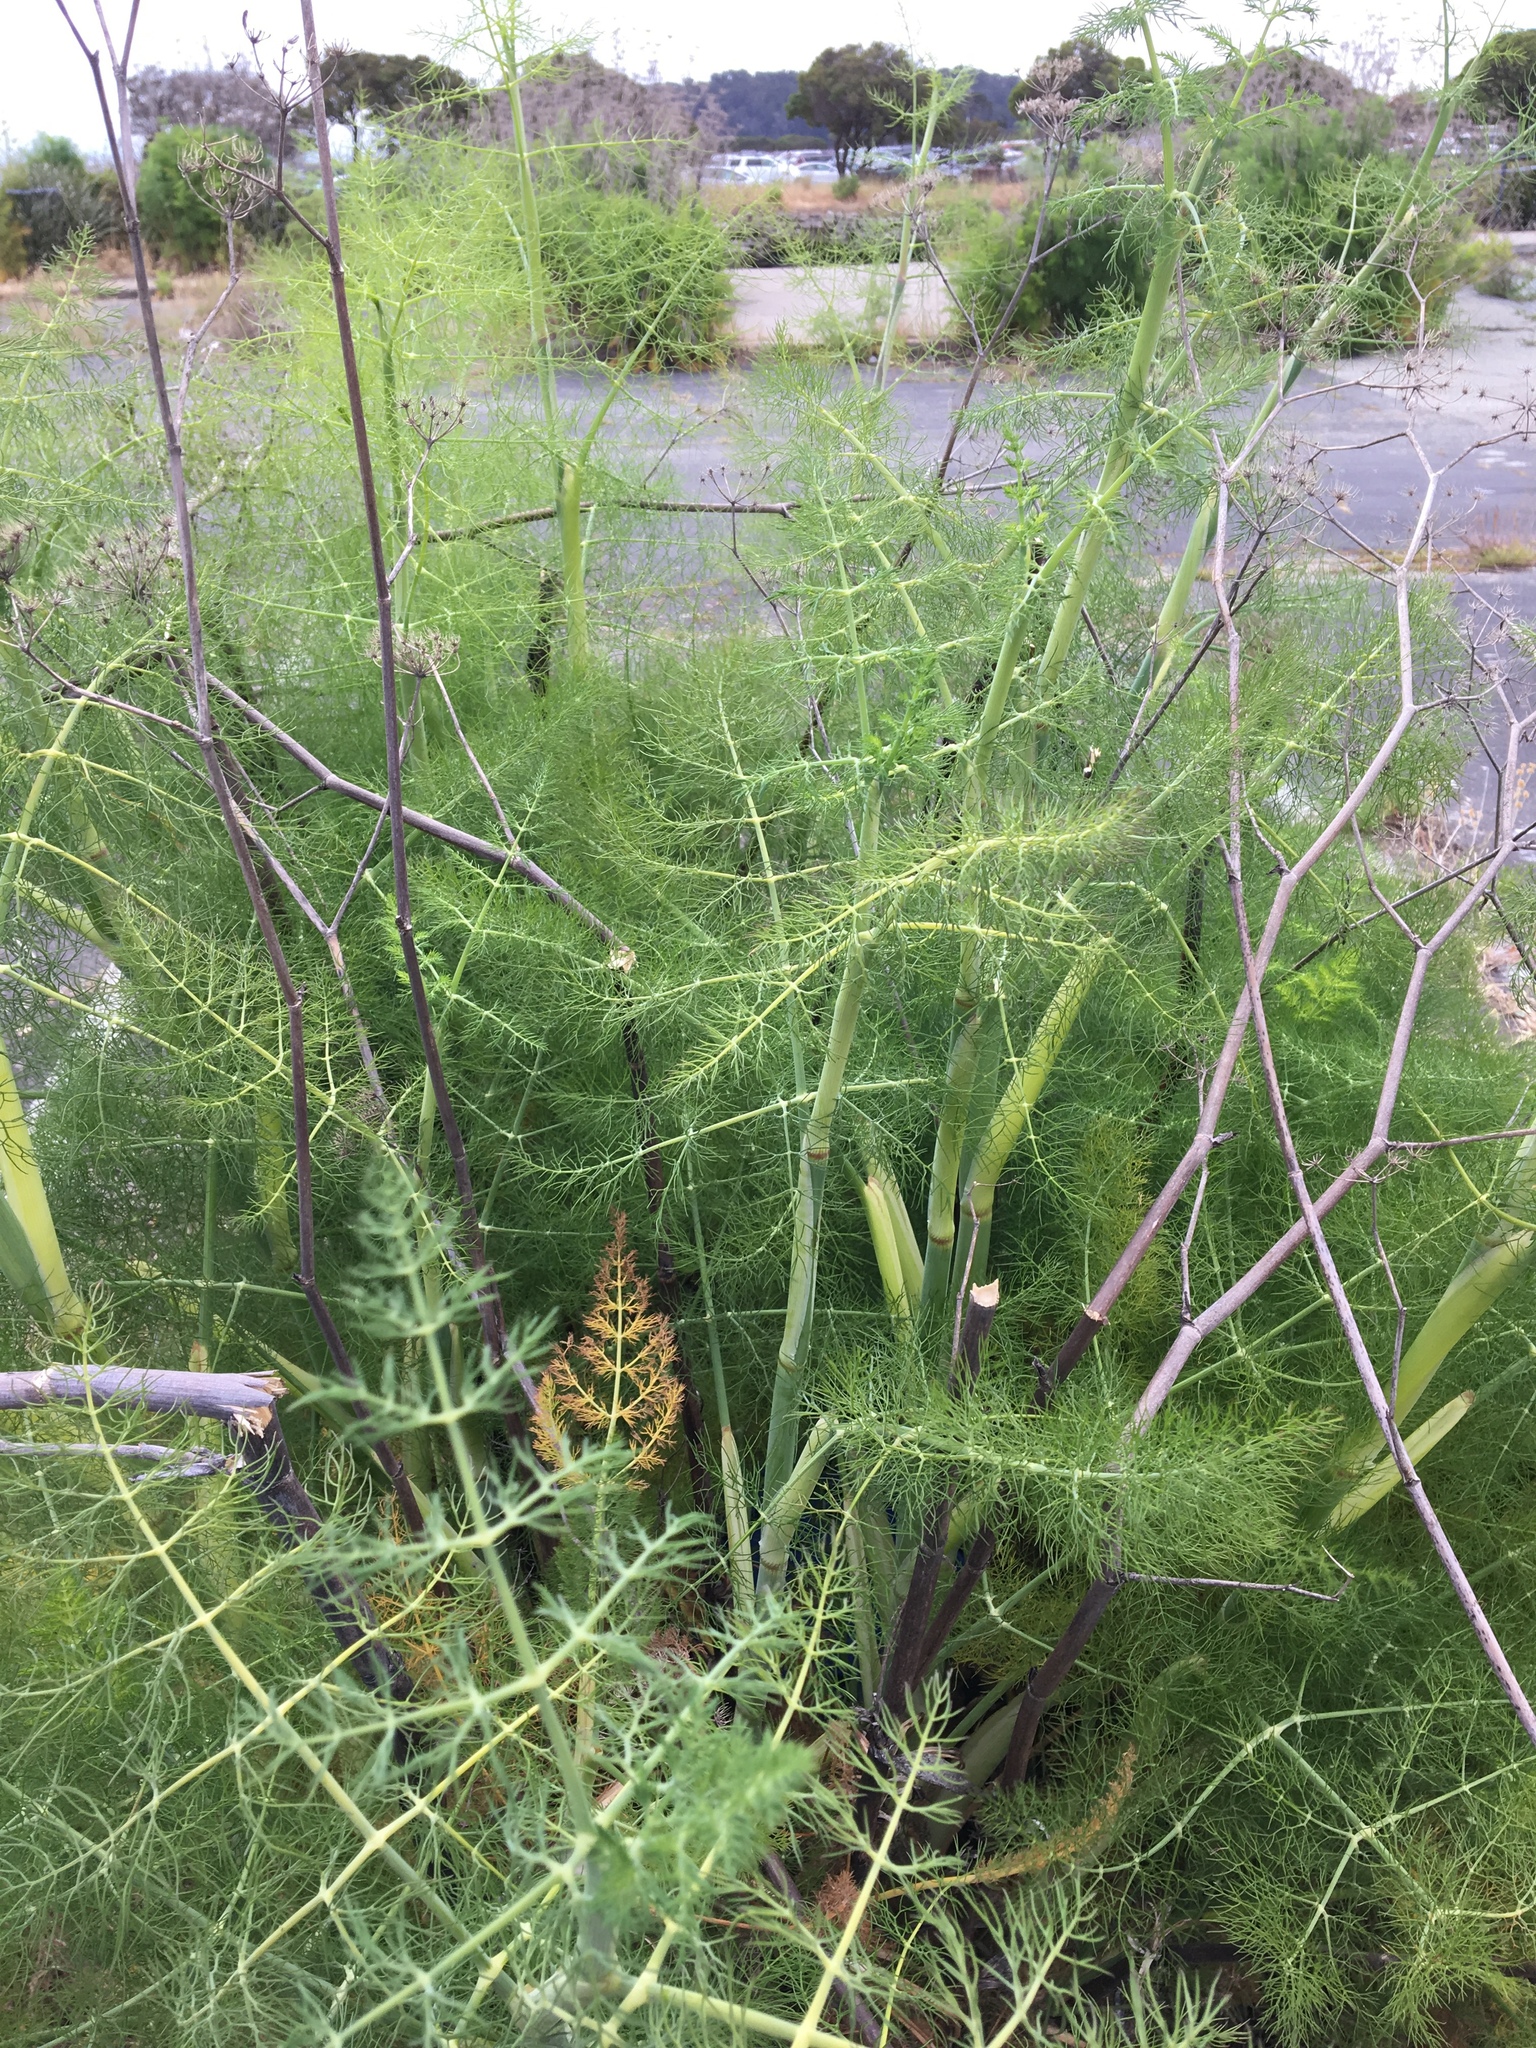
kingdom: Plantae
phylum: Tracheophyta
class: Magnoliopsida
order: Apiales
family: Apiaceae
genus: Foeniculum
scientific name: Foeniculum vulgare
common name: Fennel
